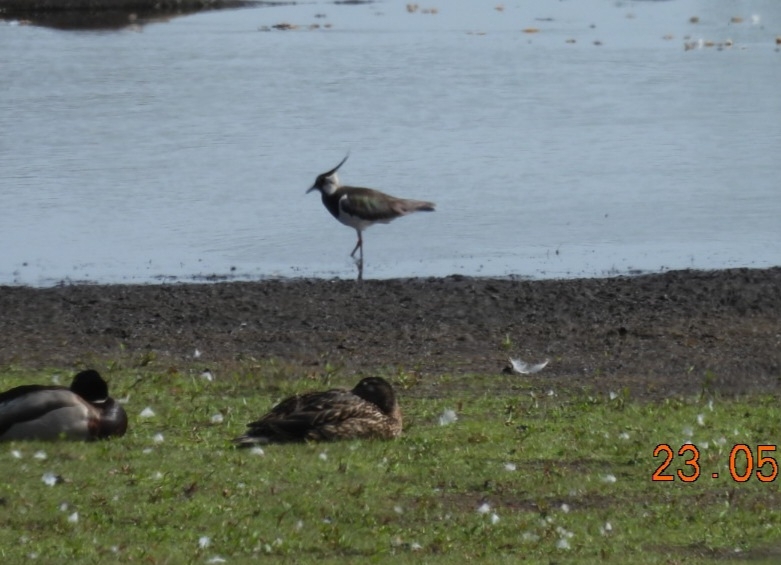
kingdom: Animalia
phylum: Chordata
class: Aves
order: Charadriiformes
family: Charadriidae
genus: Vanellus
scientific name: Vanellus vanellus
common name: Northern lapwing
